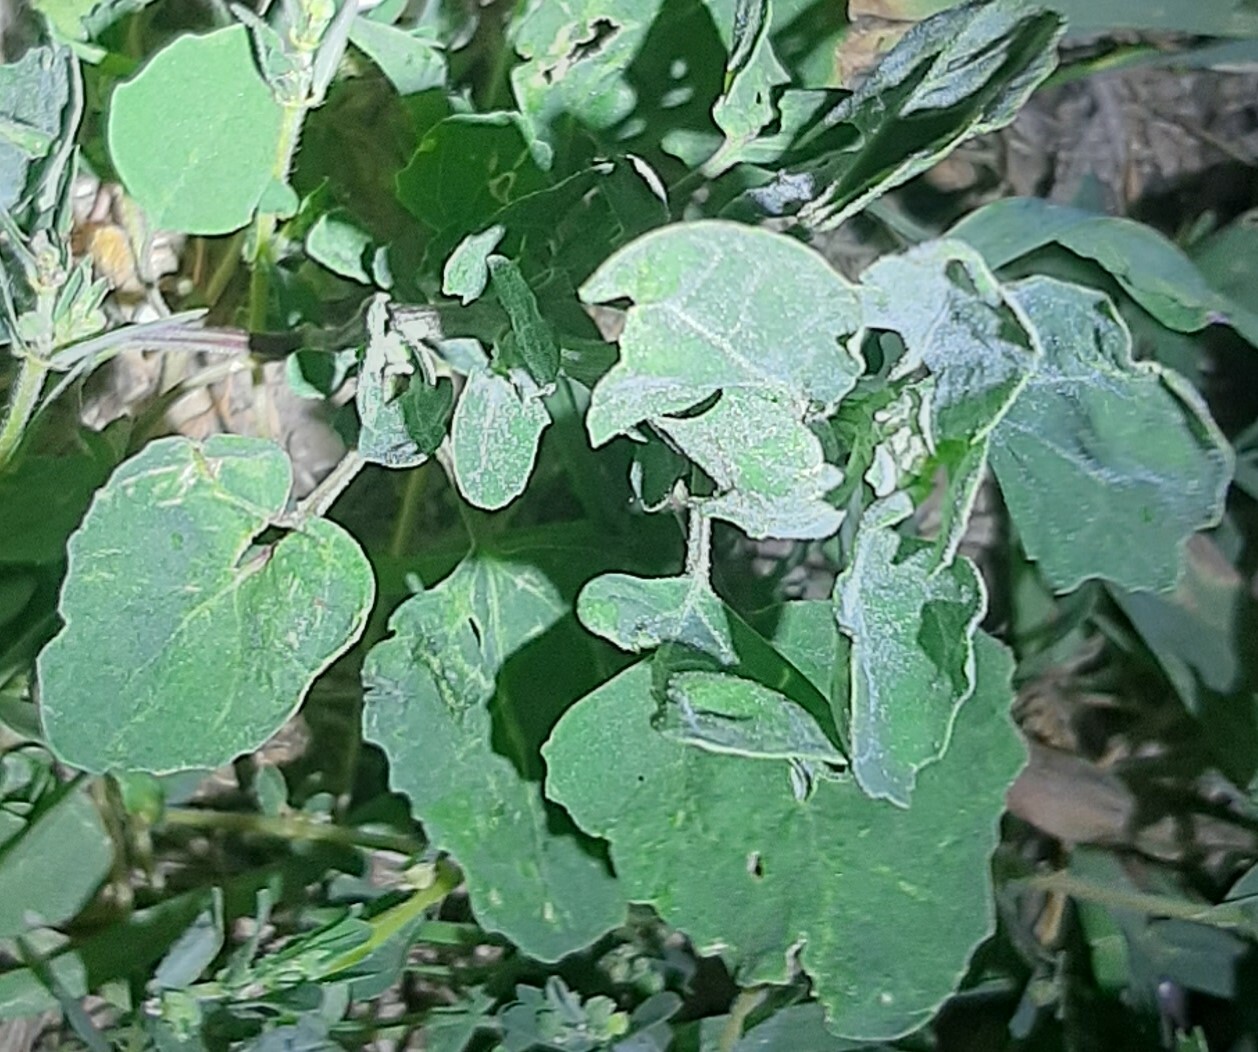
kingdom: Plantae
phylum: Tracheophyta
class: Magnoliopsida
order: Caryophyllales
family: Amaranthaceae
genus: Chenopodium
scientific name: Chenopodium album
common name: Fat-hen
